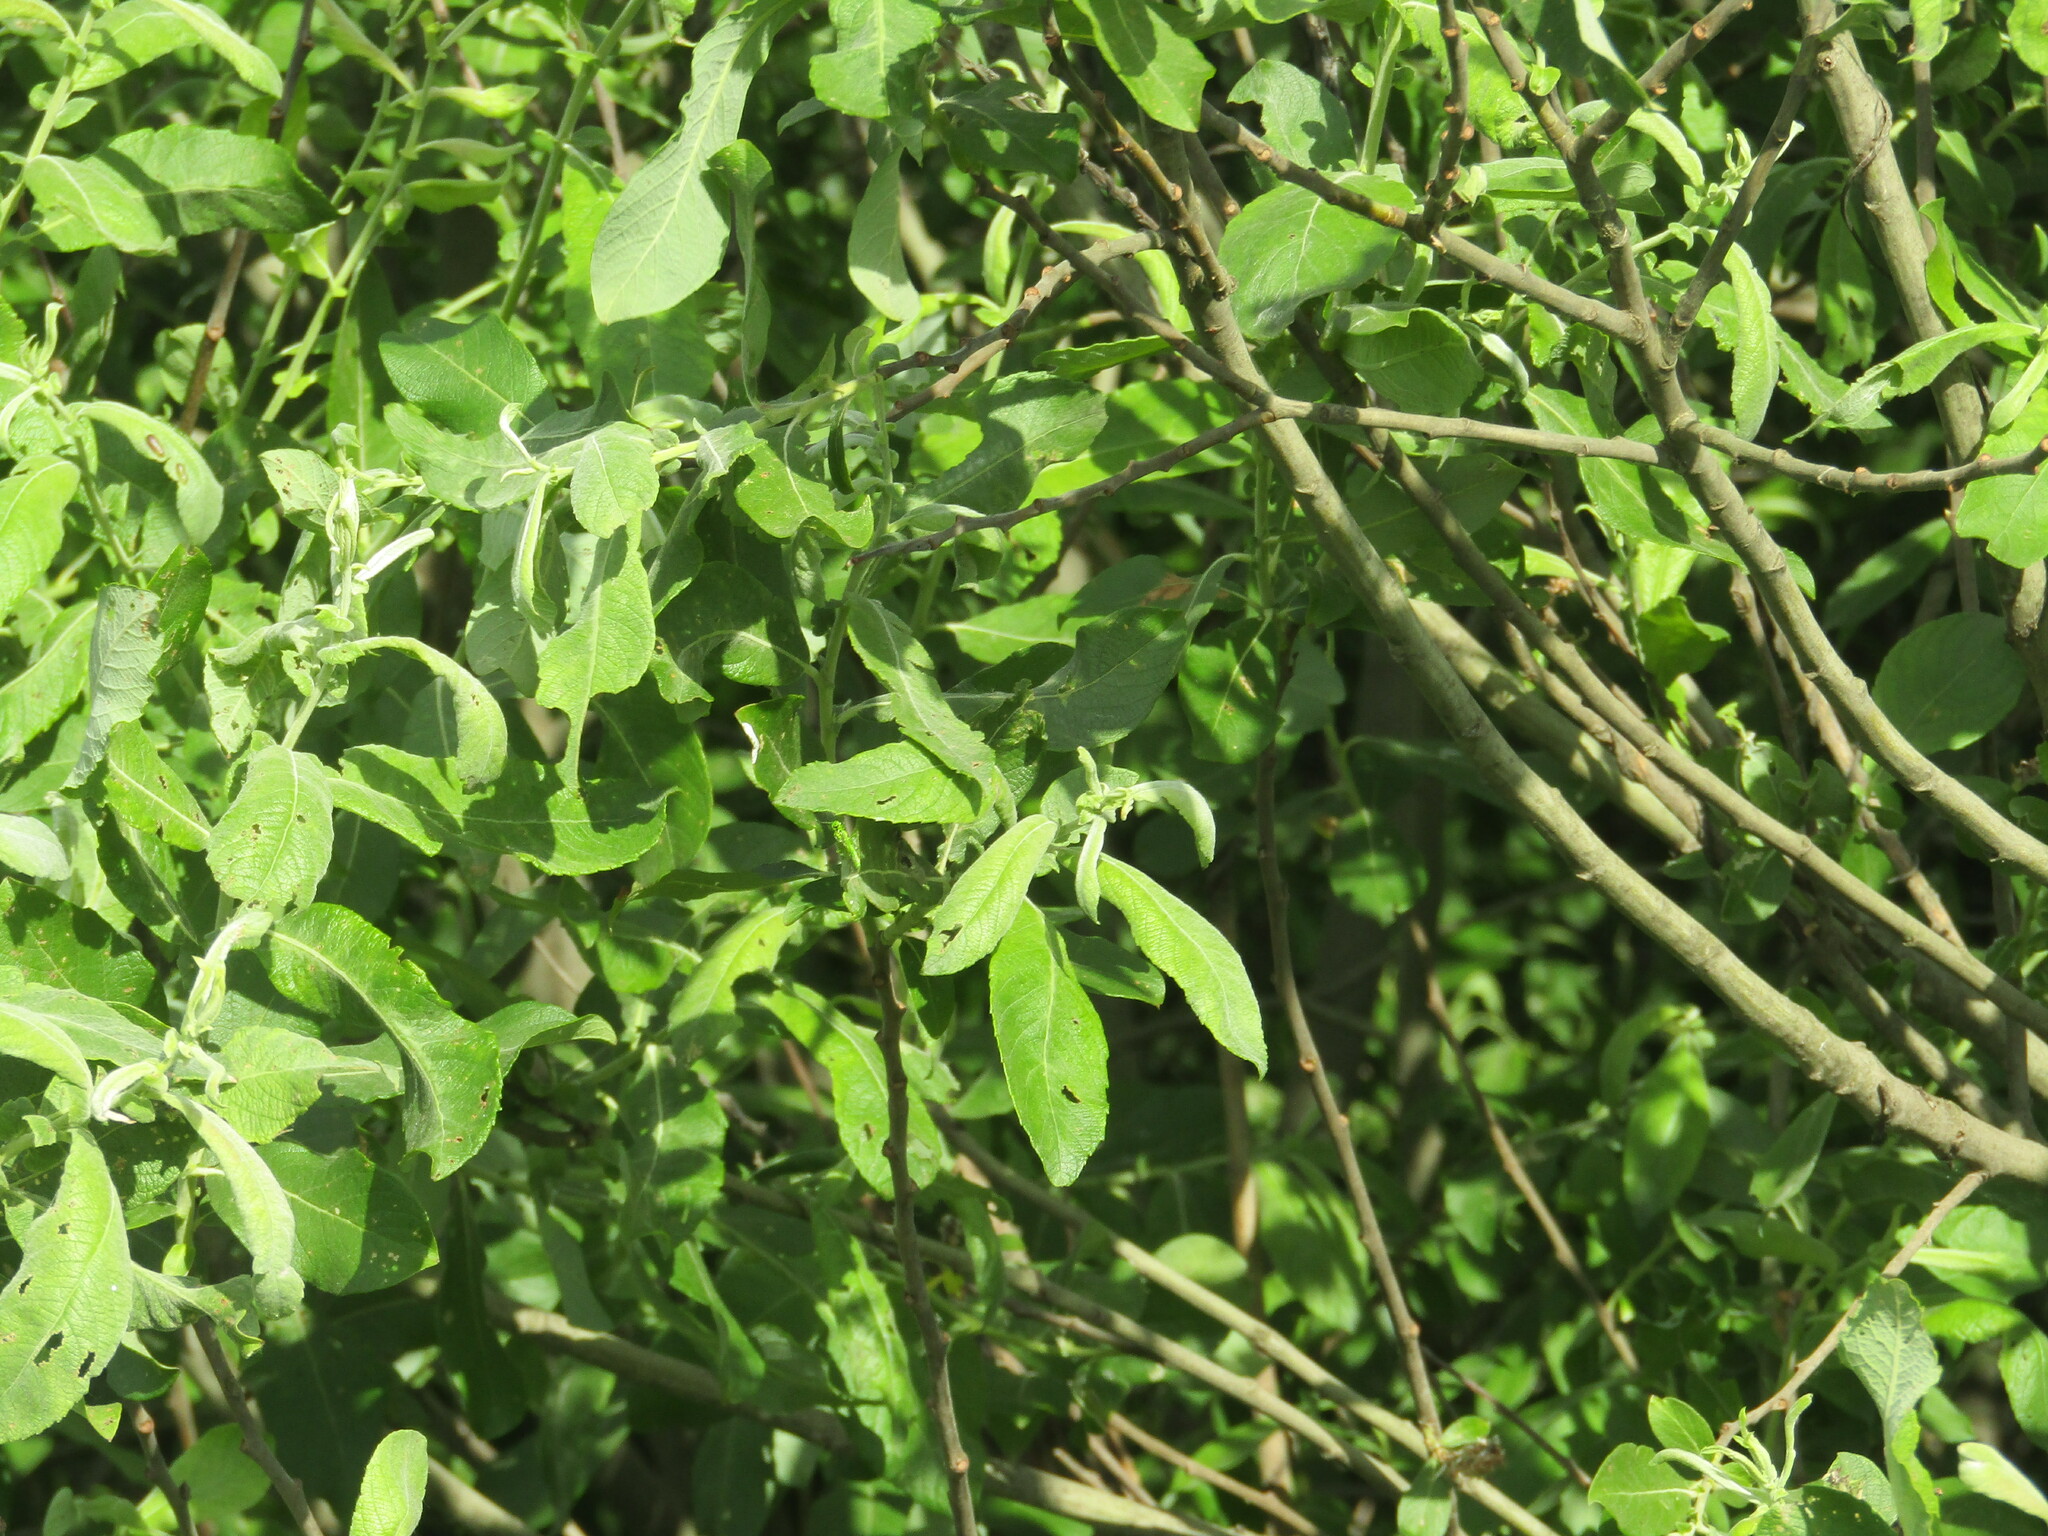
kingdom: Plantae
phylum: Tracheophyta
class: Magnoliopsida
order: Malpighiales
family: Salicaceae
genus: Salix
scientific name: Salix cinerea
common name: Common sallow
